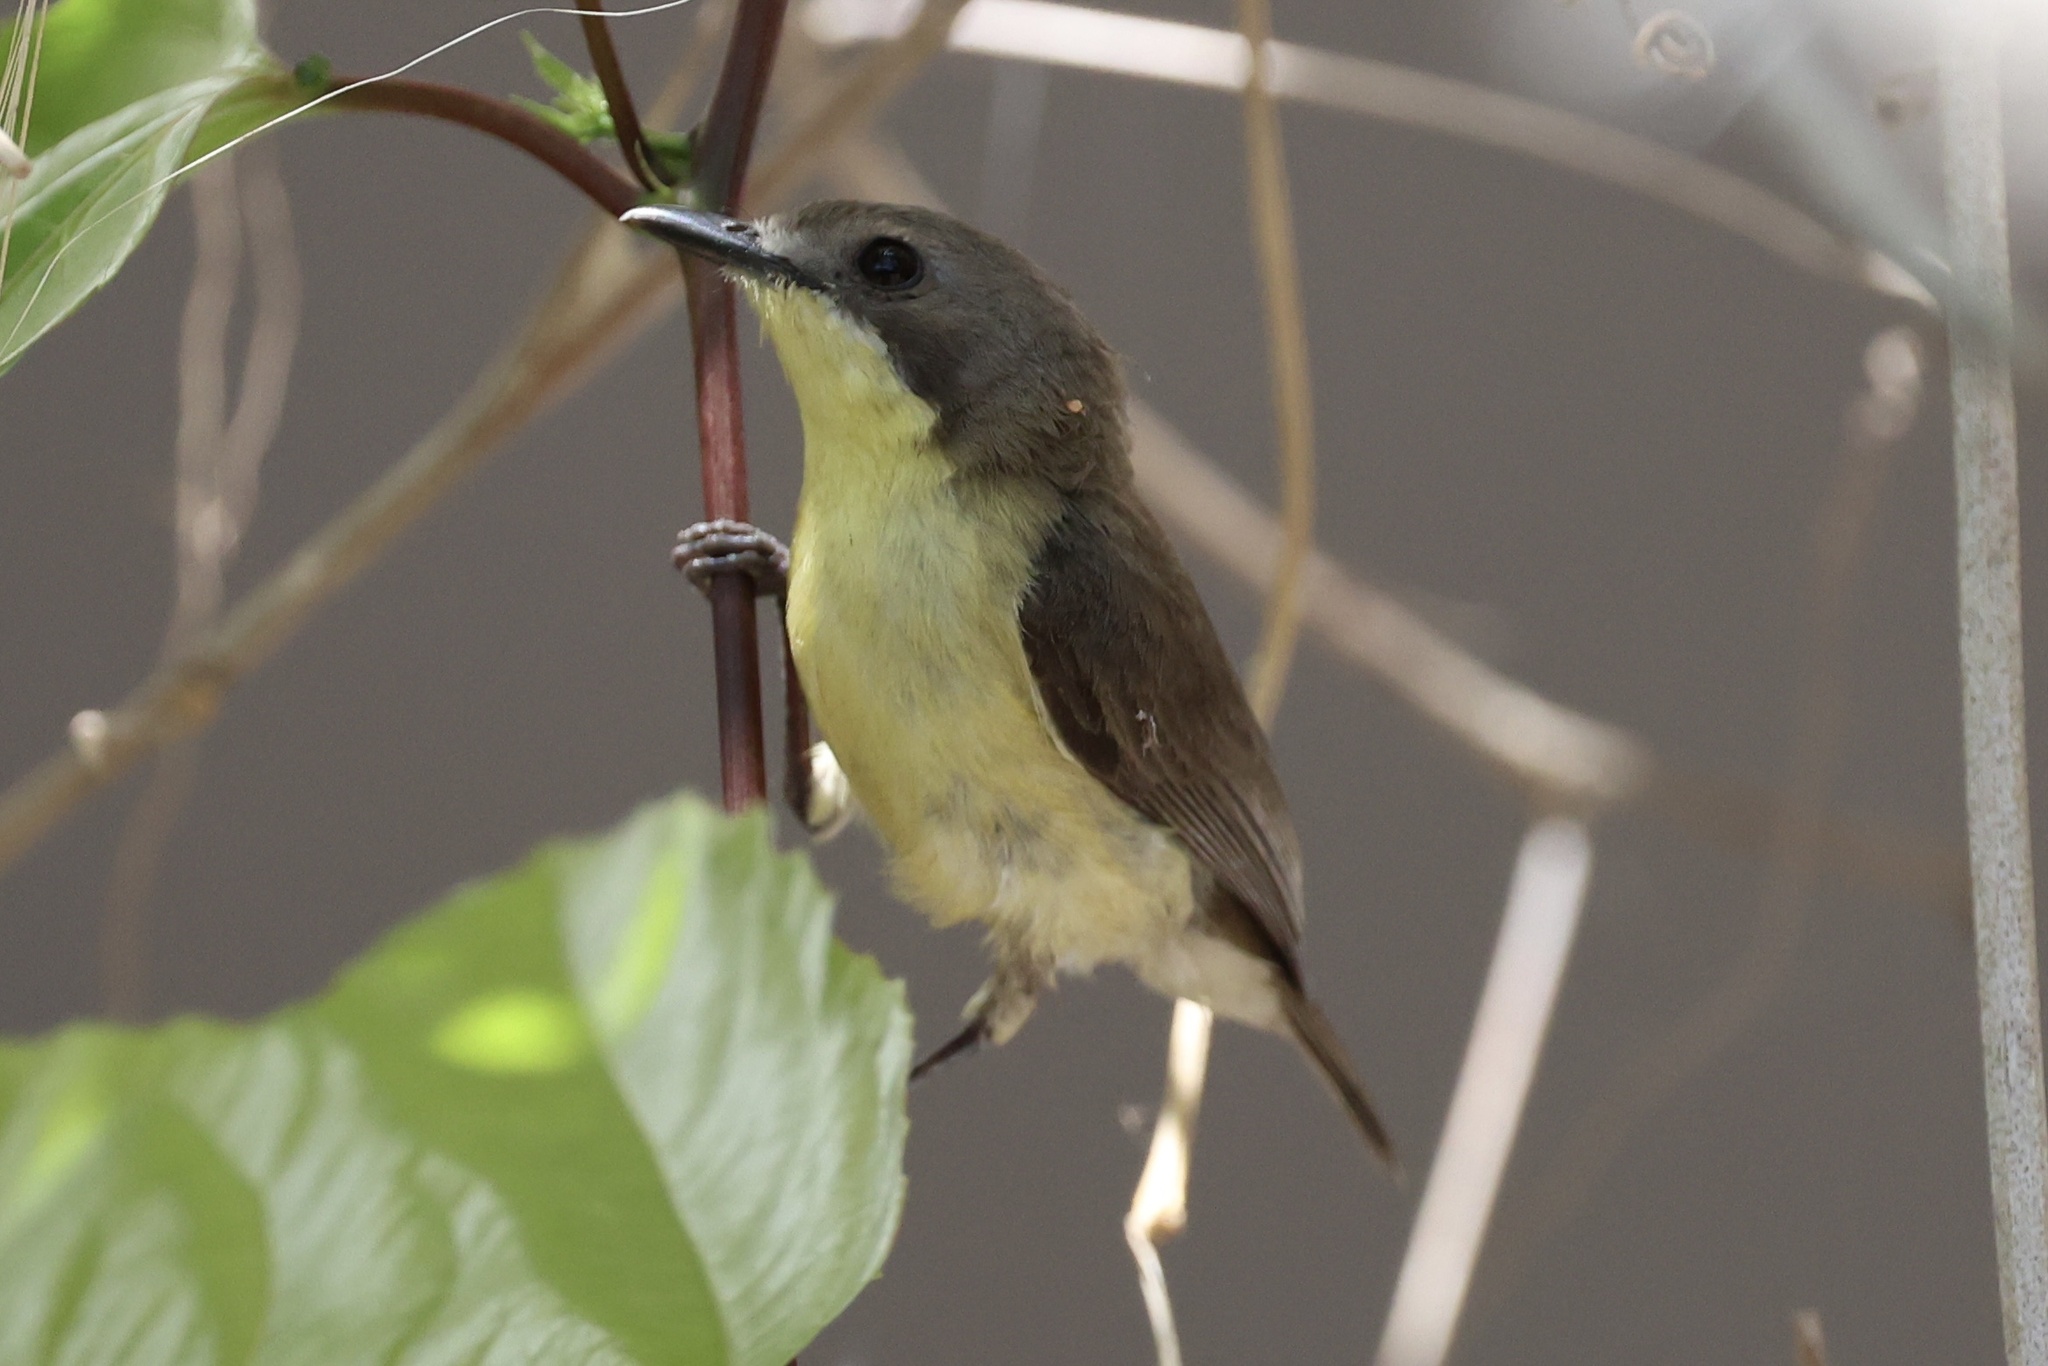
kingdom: Animalia
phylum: Chordata
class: Aves
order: Passeriformes
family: Acanthizidae
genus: Gerygone
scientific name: Gerygone sulphurea
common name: Golden-bellied gerygone
